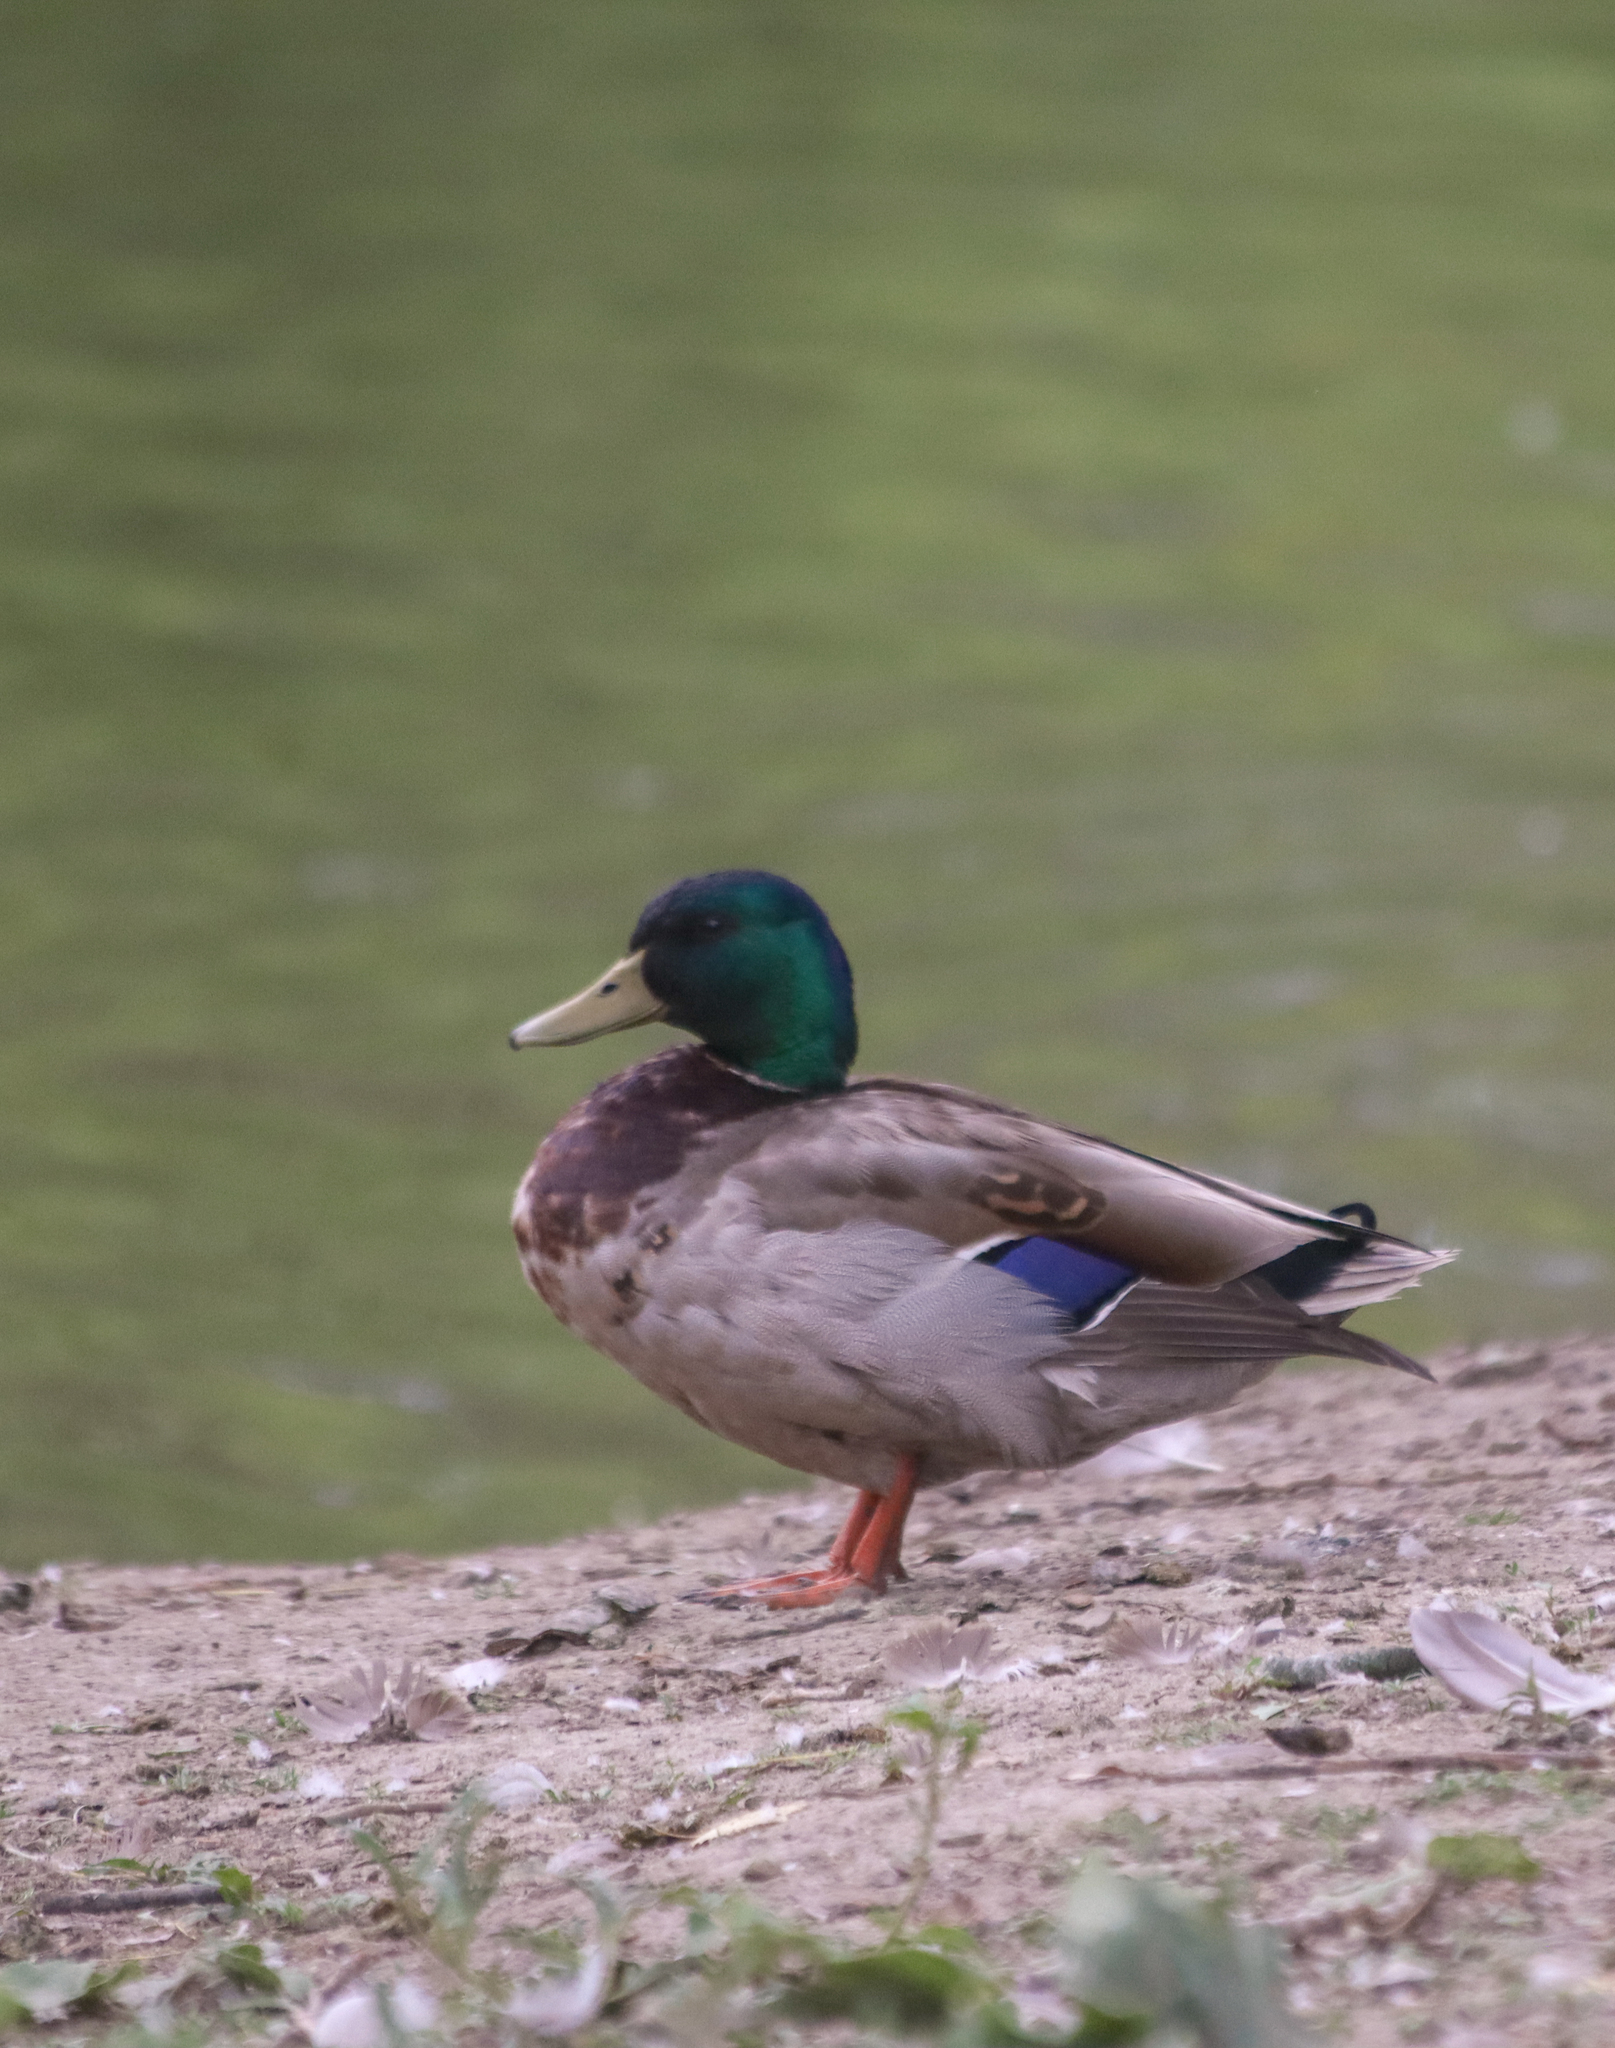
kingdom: Animalia
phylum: Chordata
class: Aves
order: Anseriformes
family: Anatidae
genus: Anas
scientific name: Anas platyrhynchos
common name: Mallard
